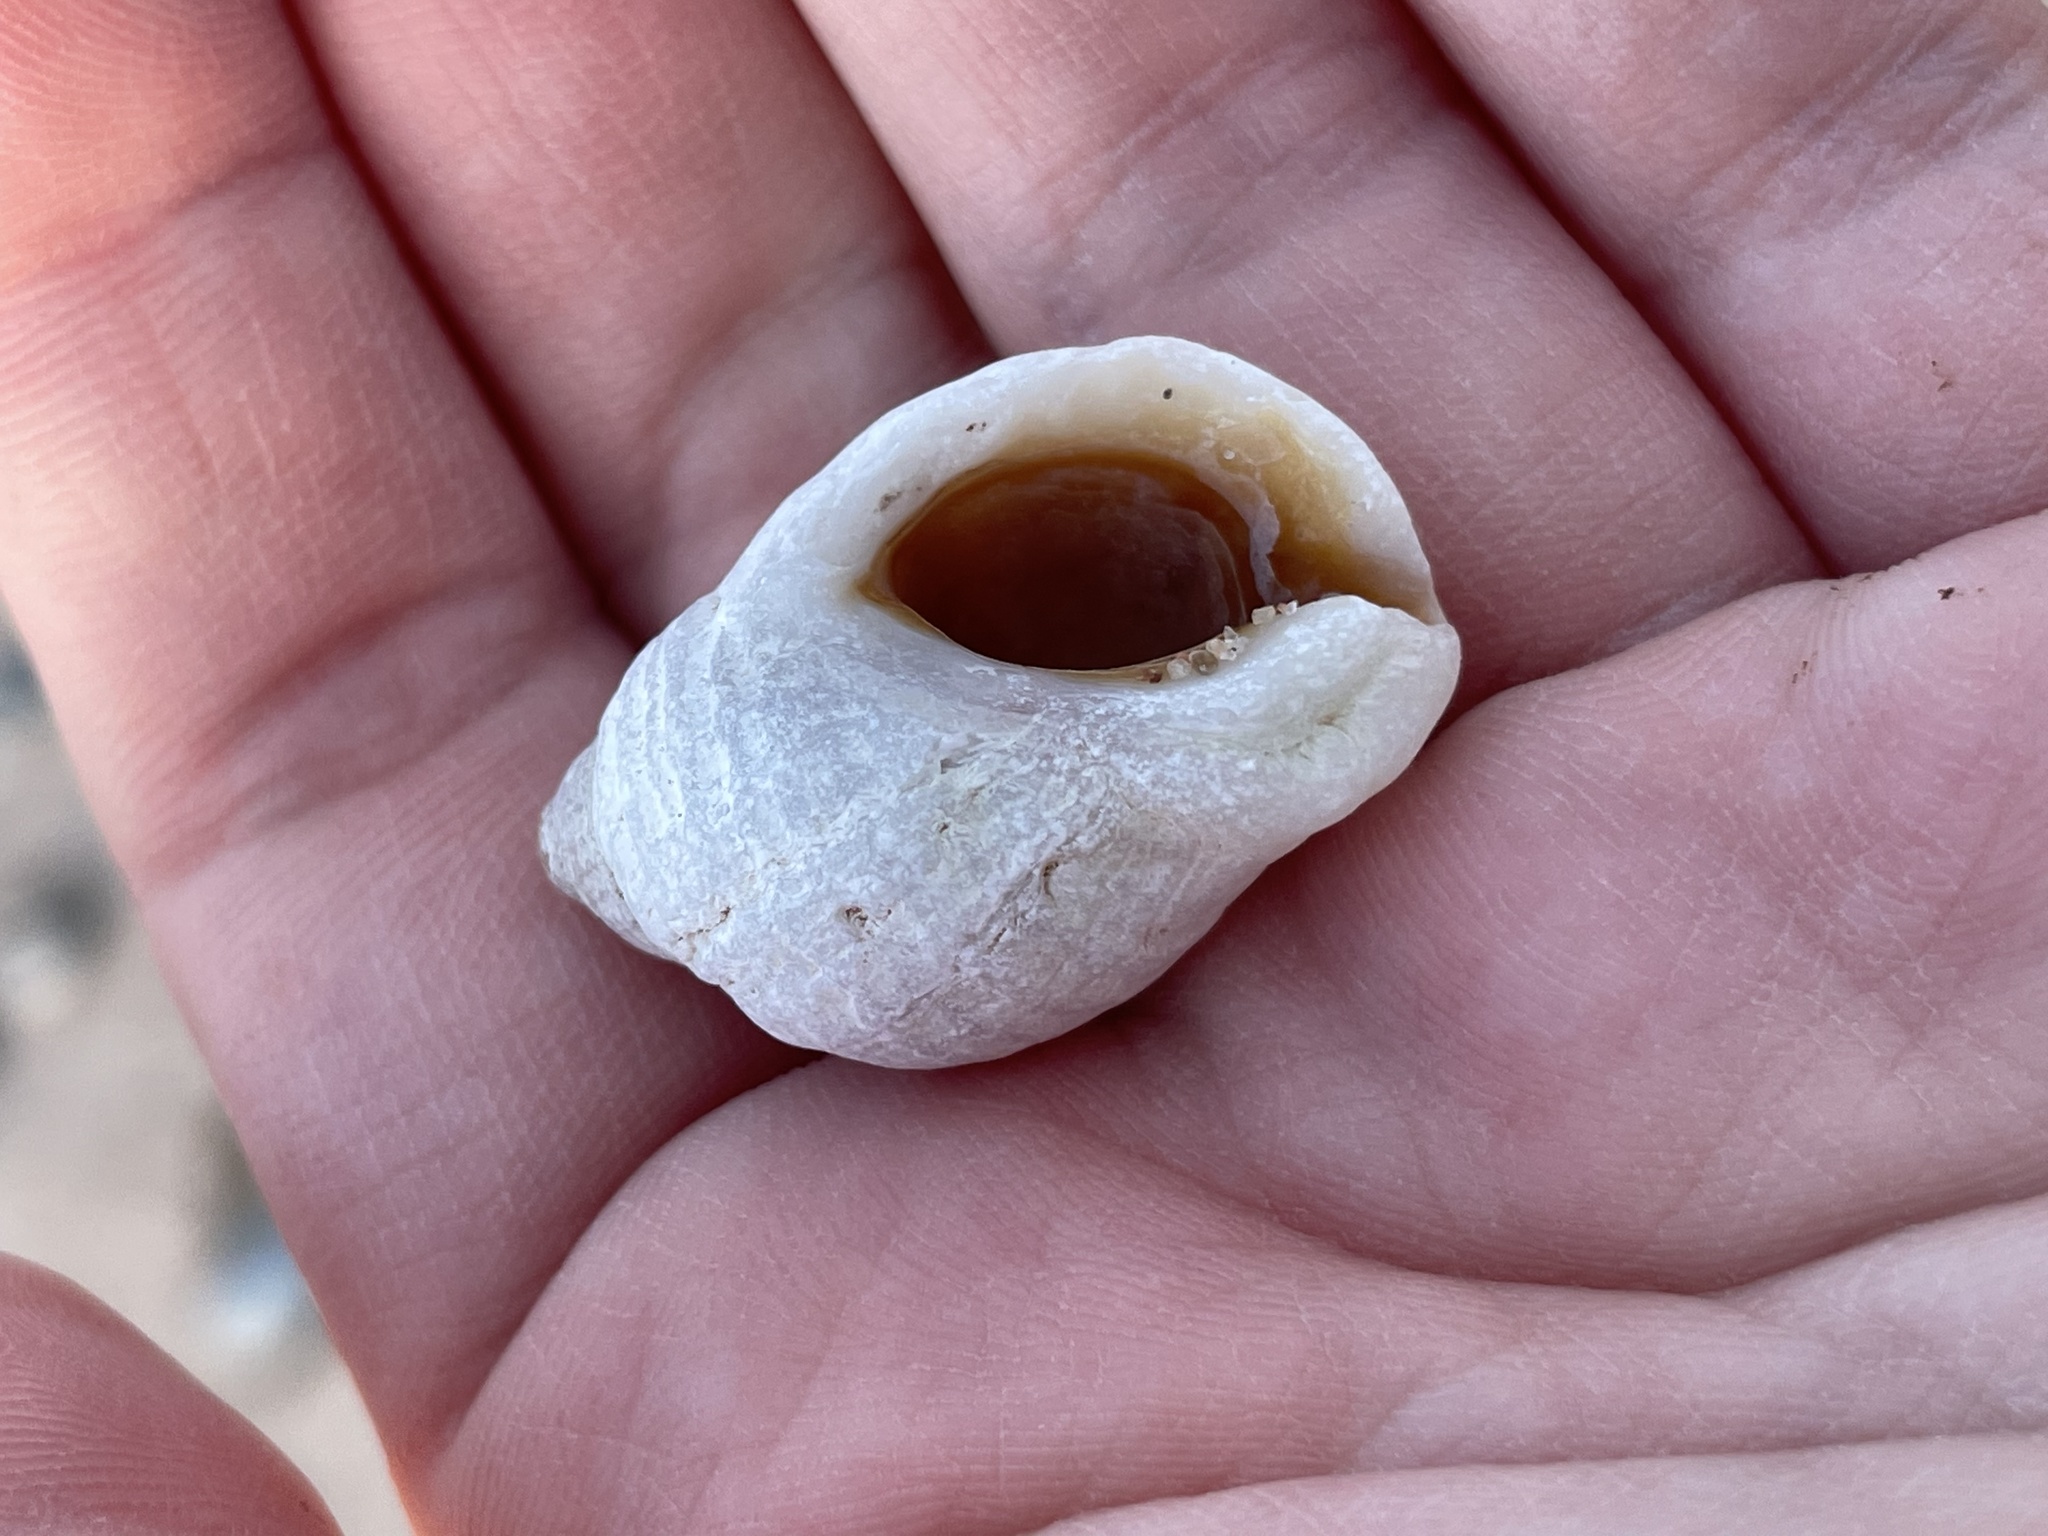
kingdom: Animalia
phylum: Mollusca
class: Gastropoda
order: Neogastropoda
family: Muricidae
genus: Nucella
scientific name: Nucella lapillus
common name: Dog whelk
